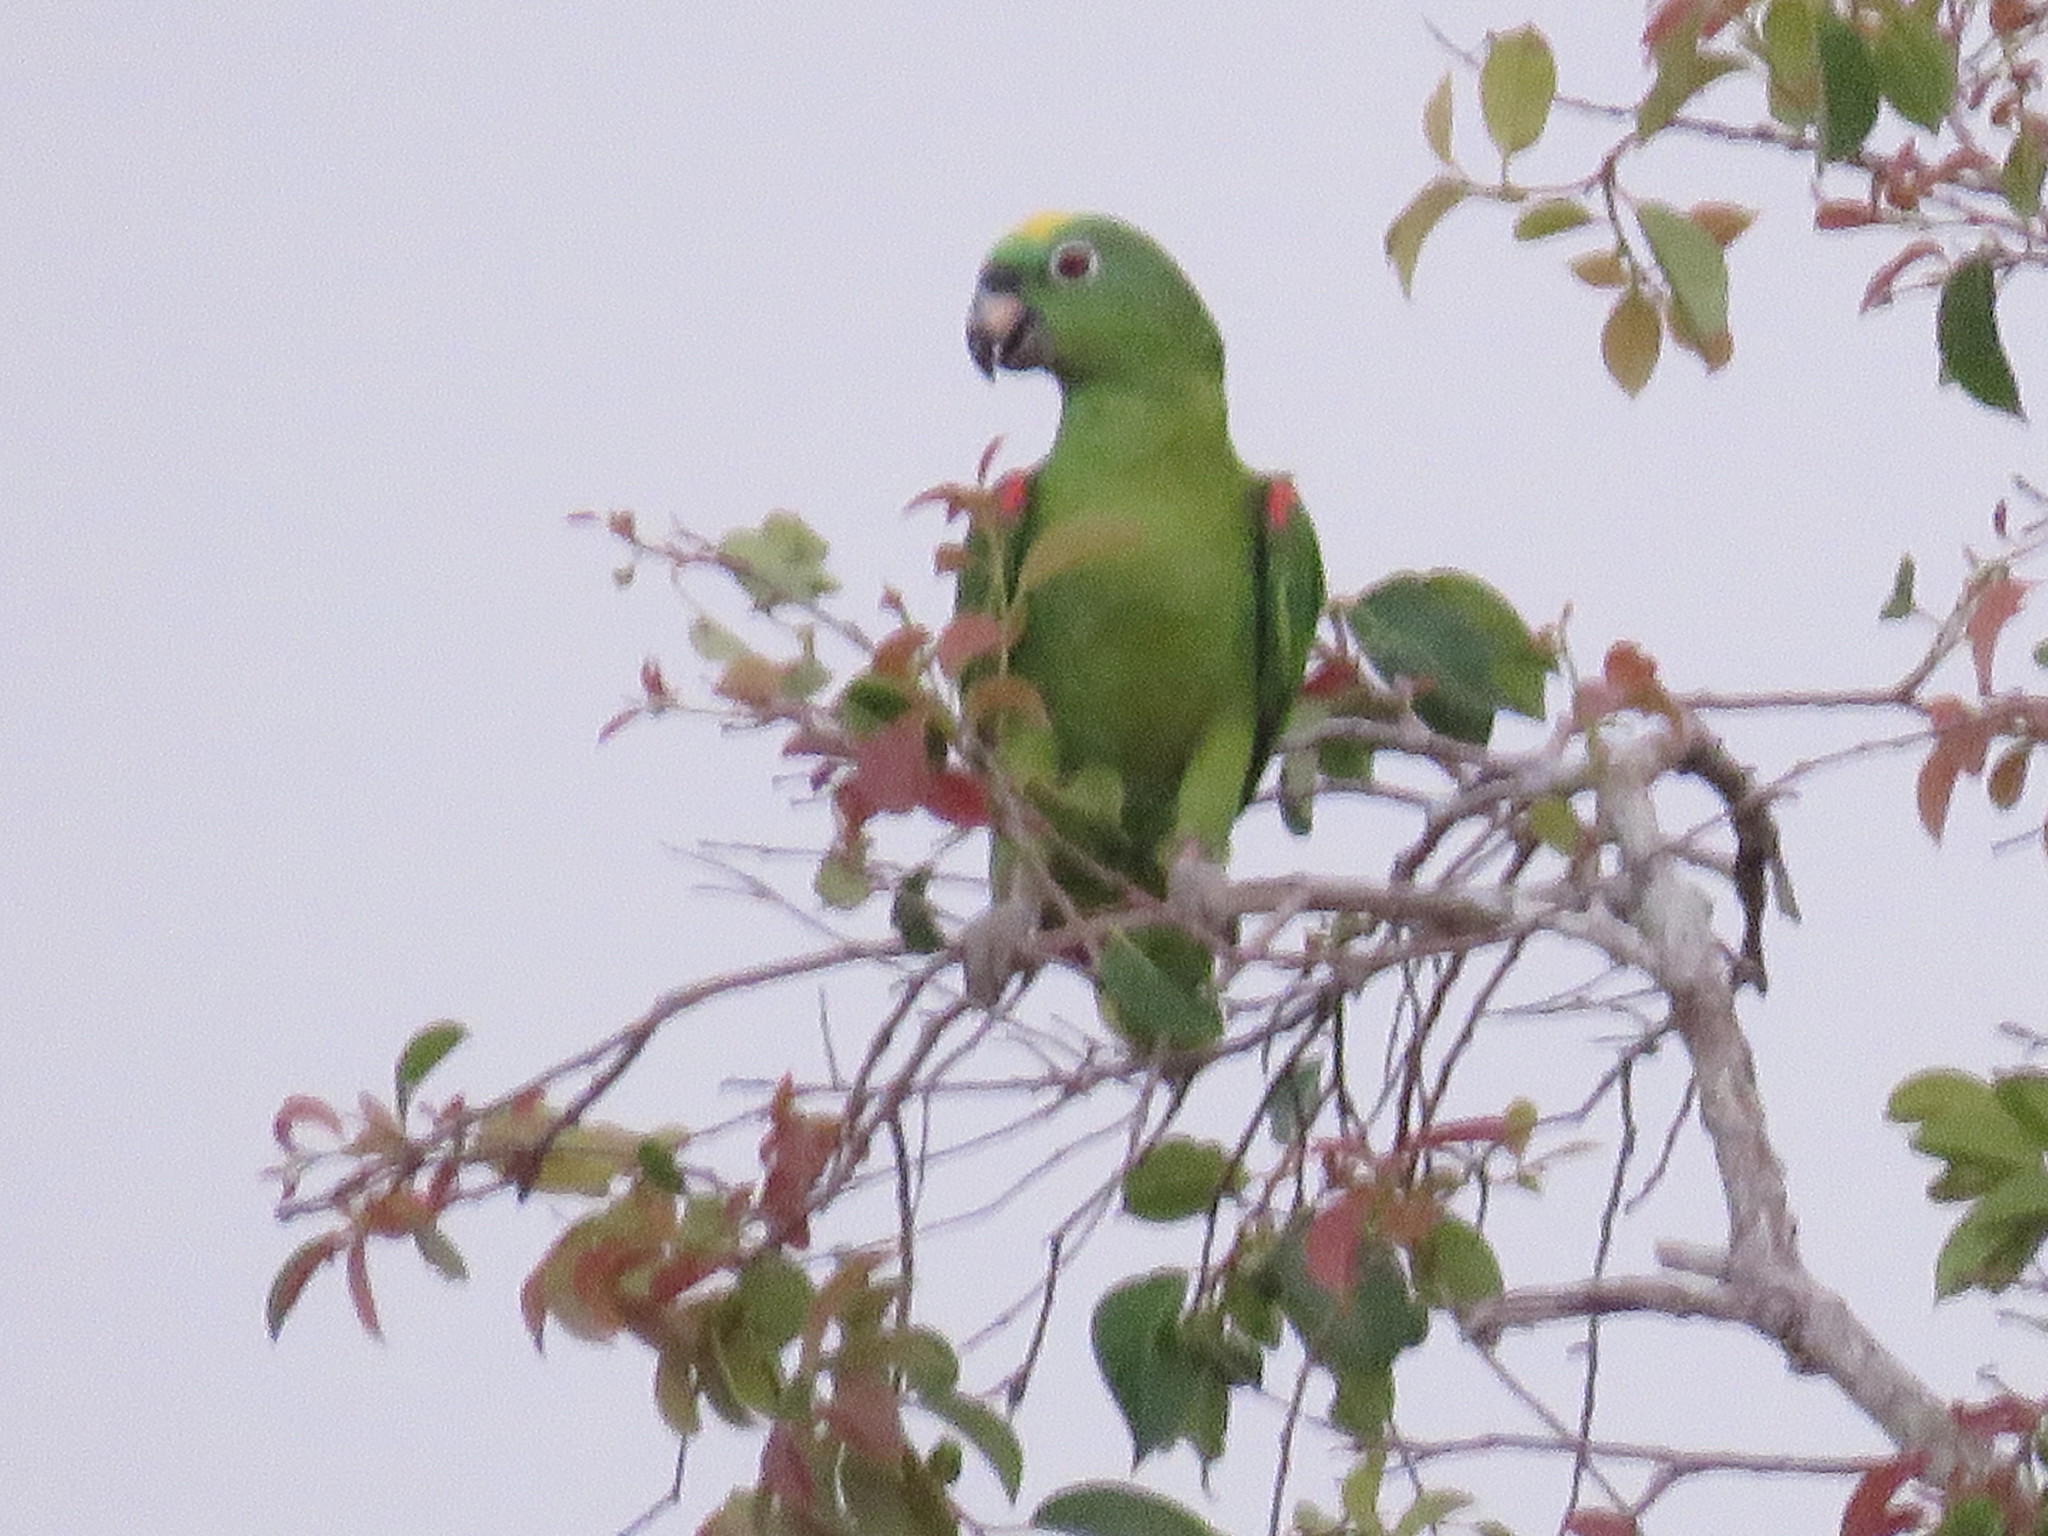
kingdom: Animalia
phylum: Chordata
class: Aves
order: Psittaciformes
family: Psittacidae
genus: Amazona
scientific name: Amazona ochrocephala
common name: Yellow-crowned amazon
